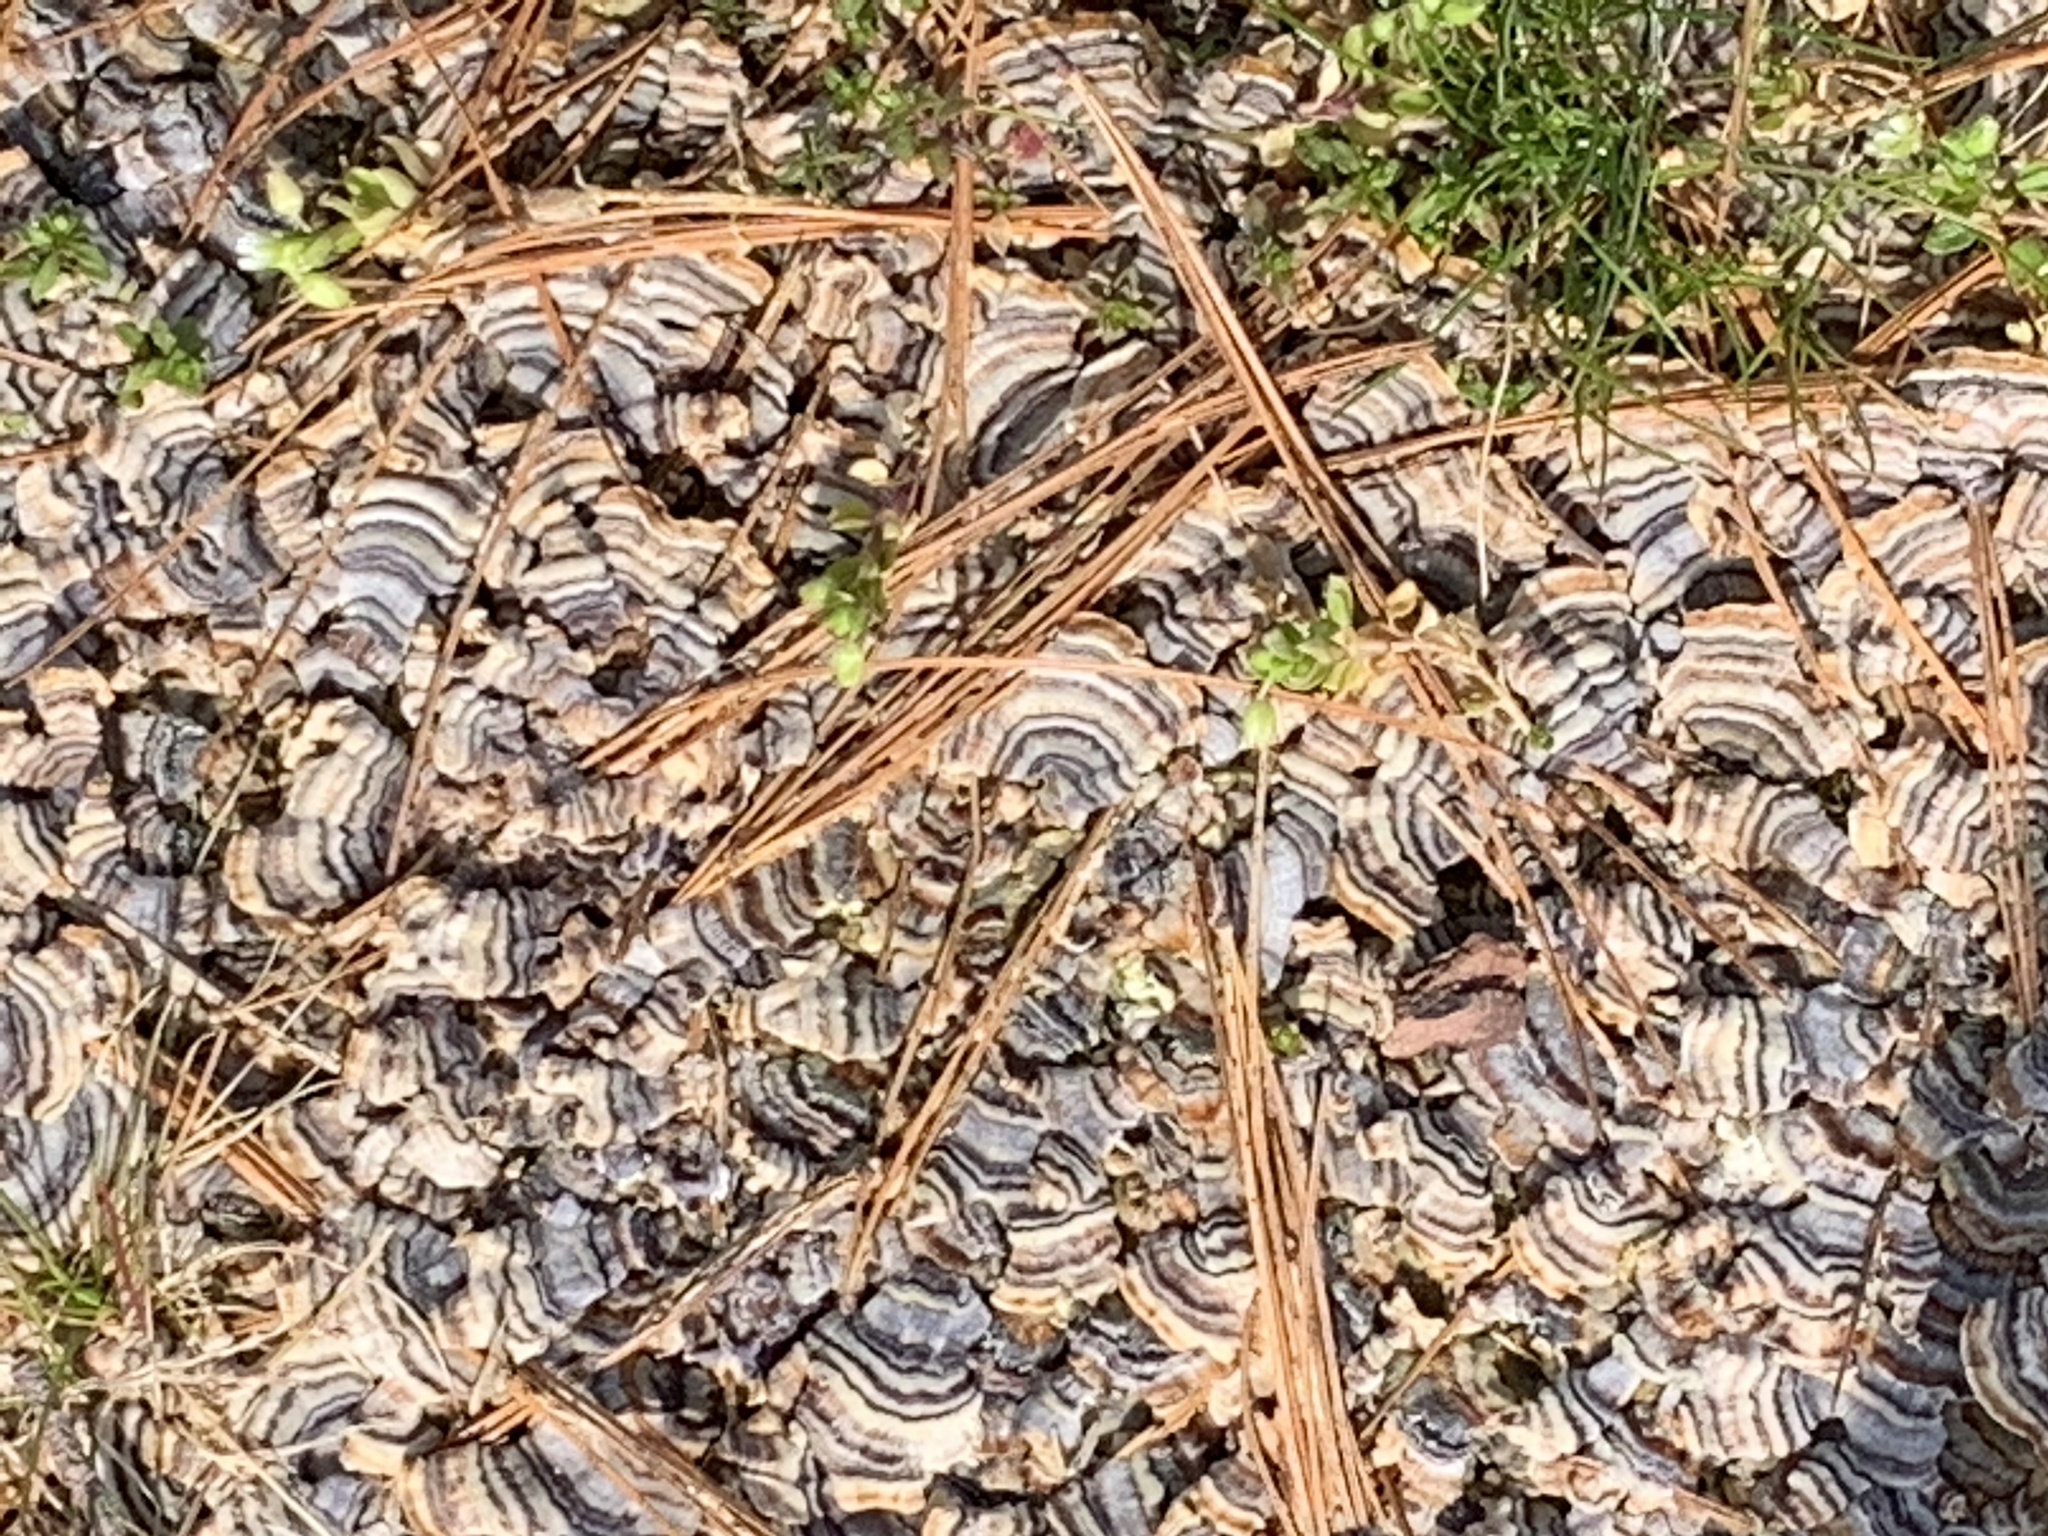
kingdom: Fungi
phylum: Basidiomycota
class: Agaricomycetes
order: Polyporales
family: Polyporaceae
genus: Trametes
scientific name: Trametes versicolor
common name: Turkeytail
